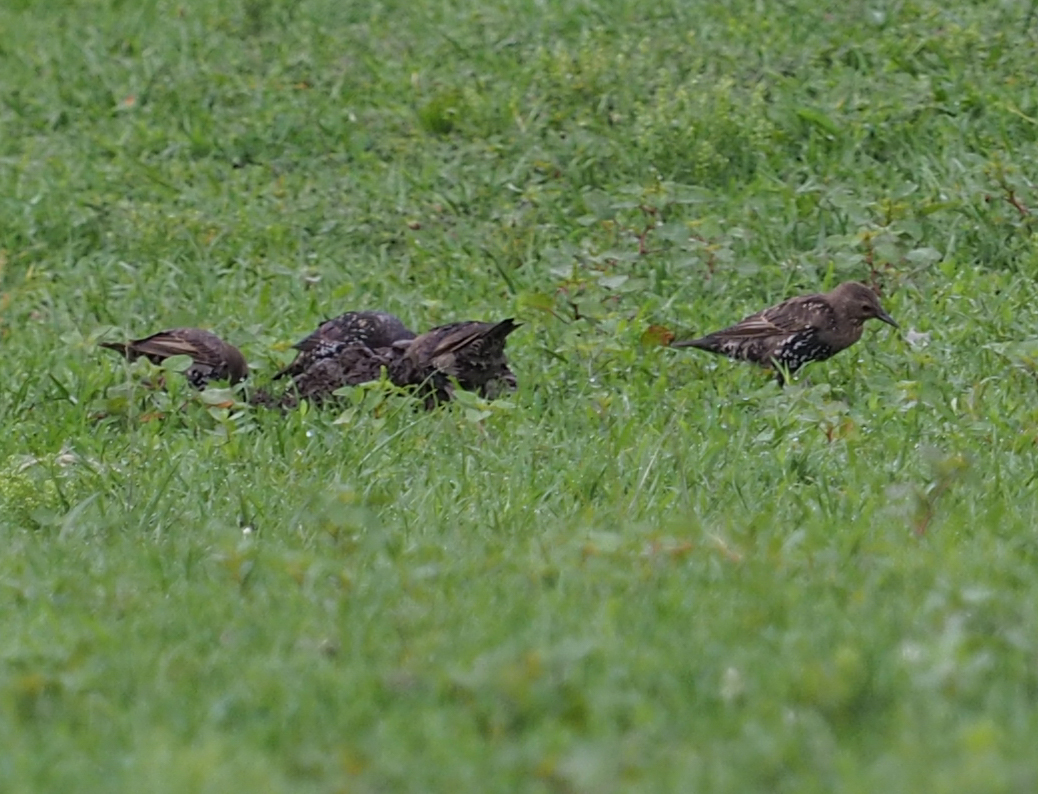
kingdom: Animalia
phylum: Chordata
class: Aves
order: Passeriformes
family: Sturnidae
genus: Sturnus
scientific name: Sturnus vulgaris
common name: Common starling
